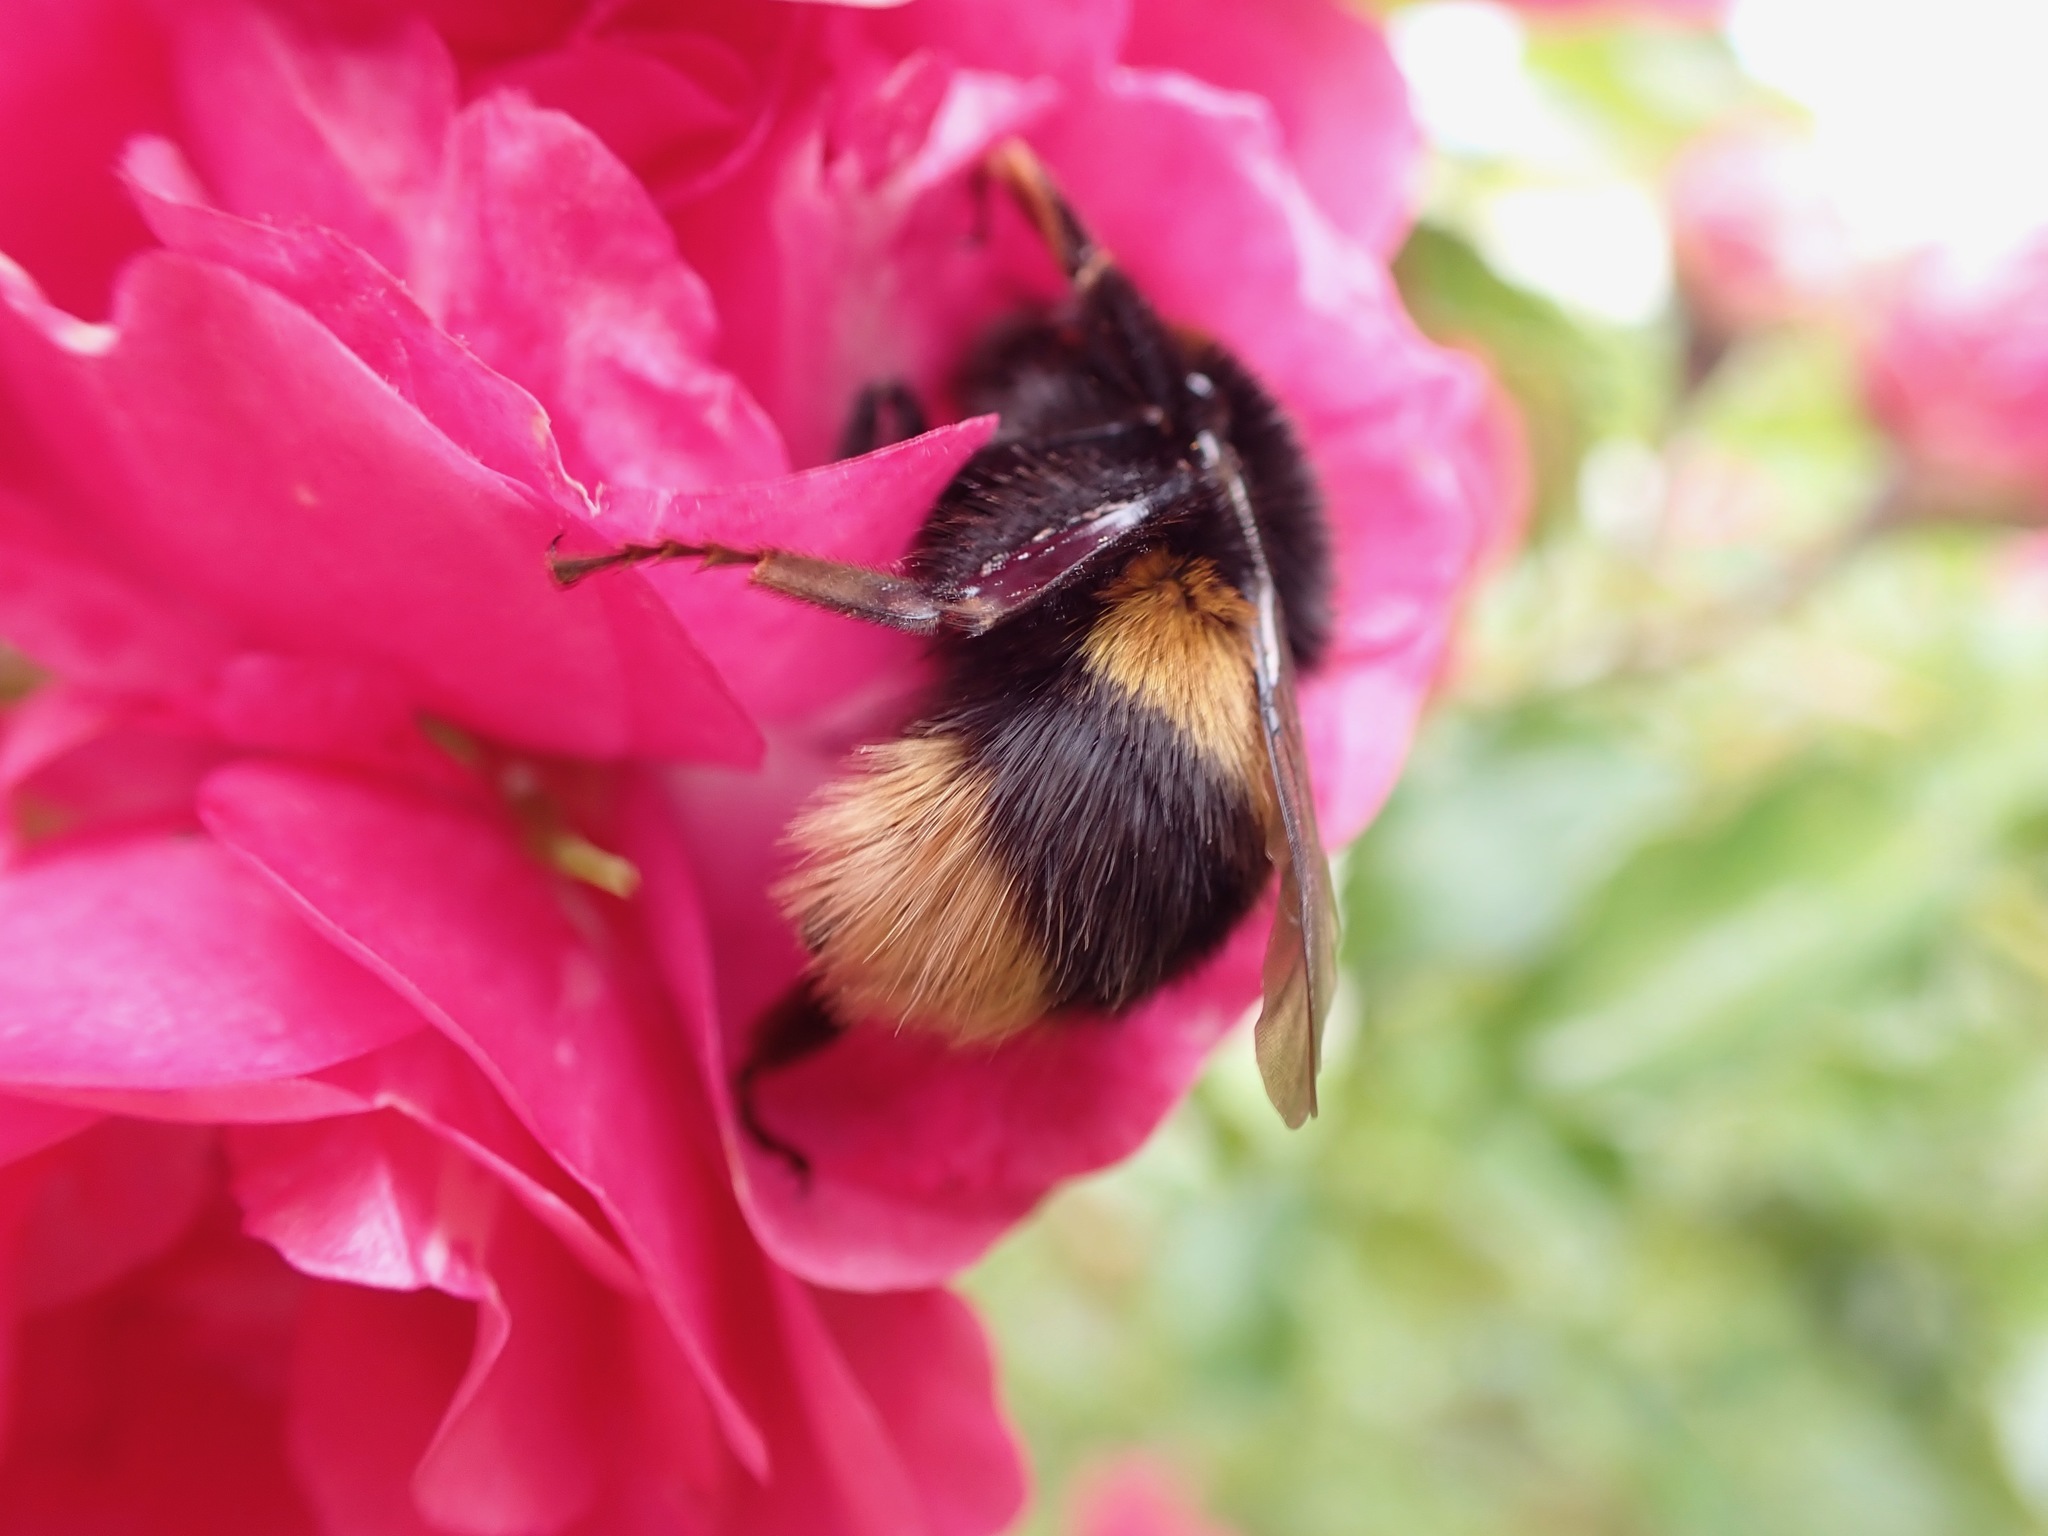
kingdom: Animalia
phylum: Arthropoda
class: Insecta
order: Hymenoptera
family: Apidae
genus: Bombus
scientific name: Bombus terrestris
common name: Buff-tailed bumblebee
